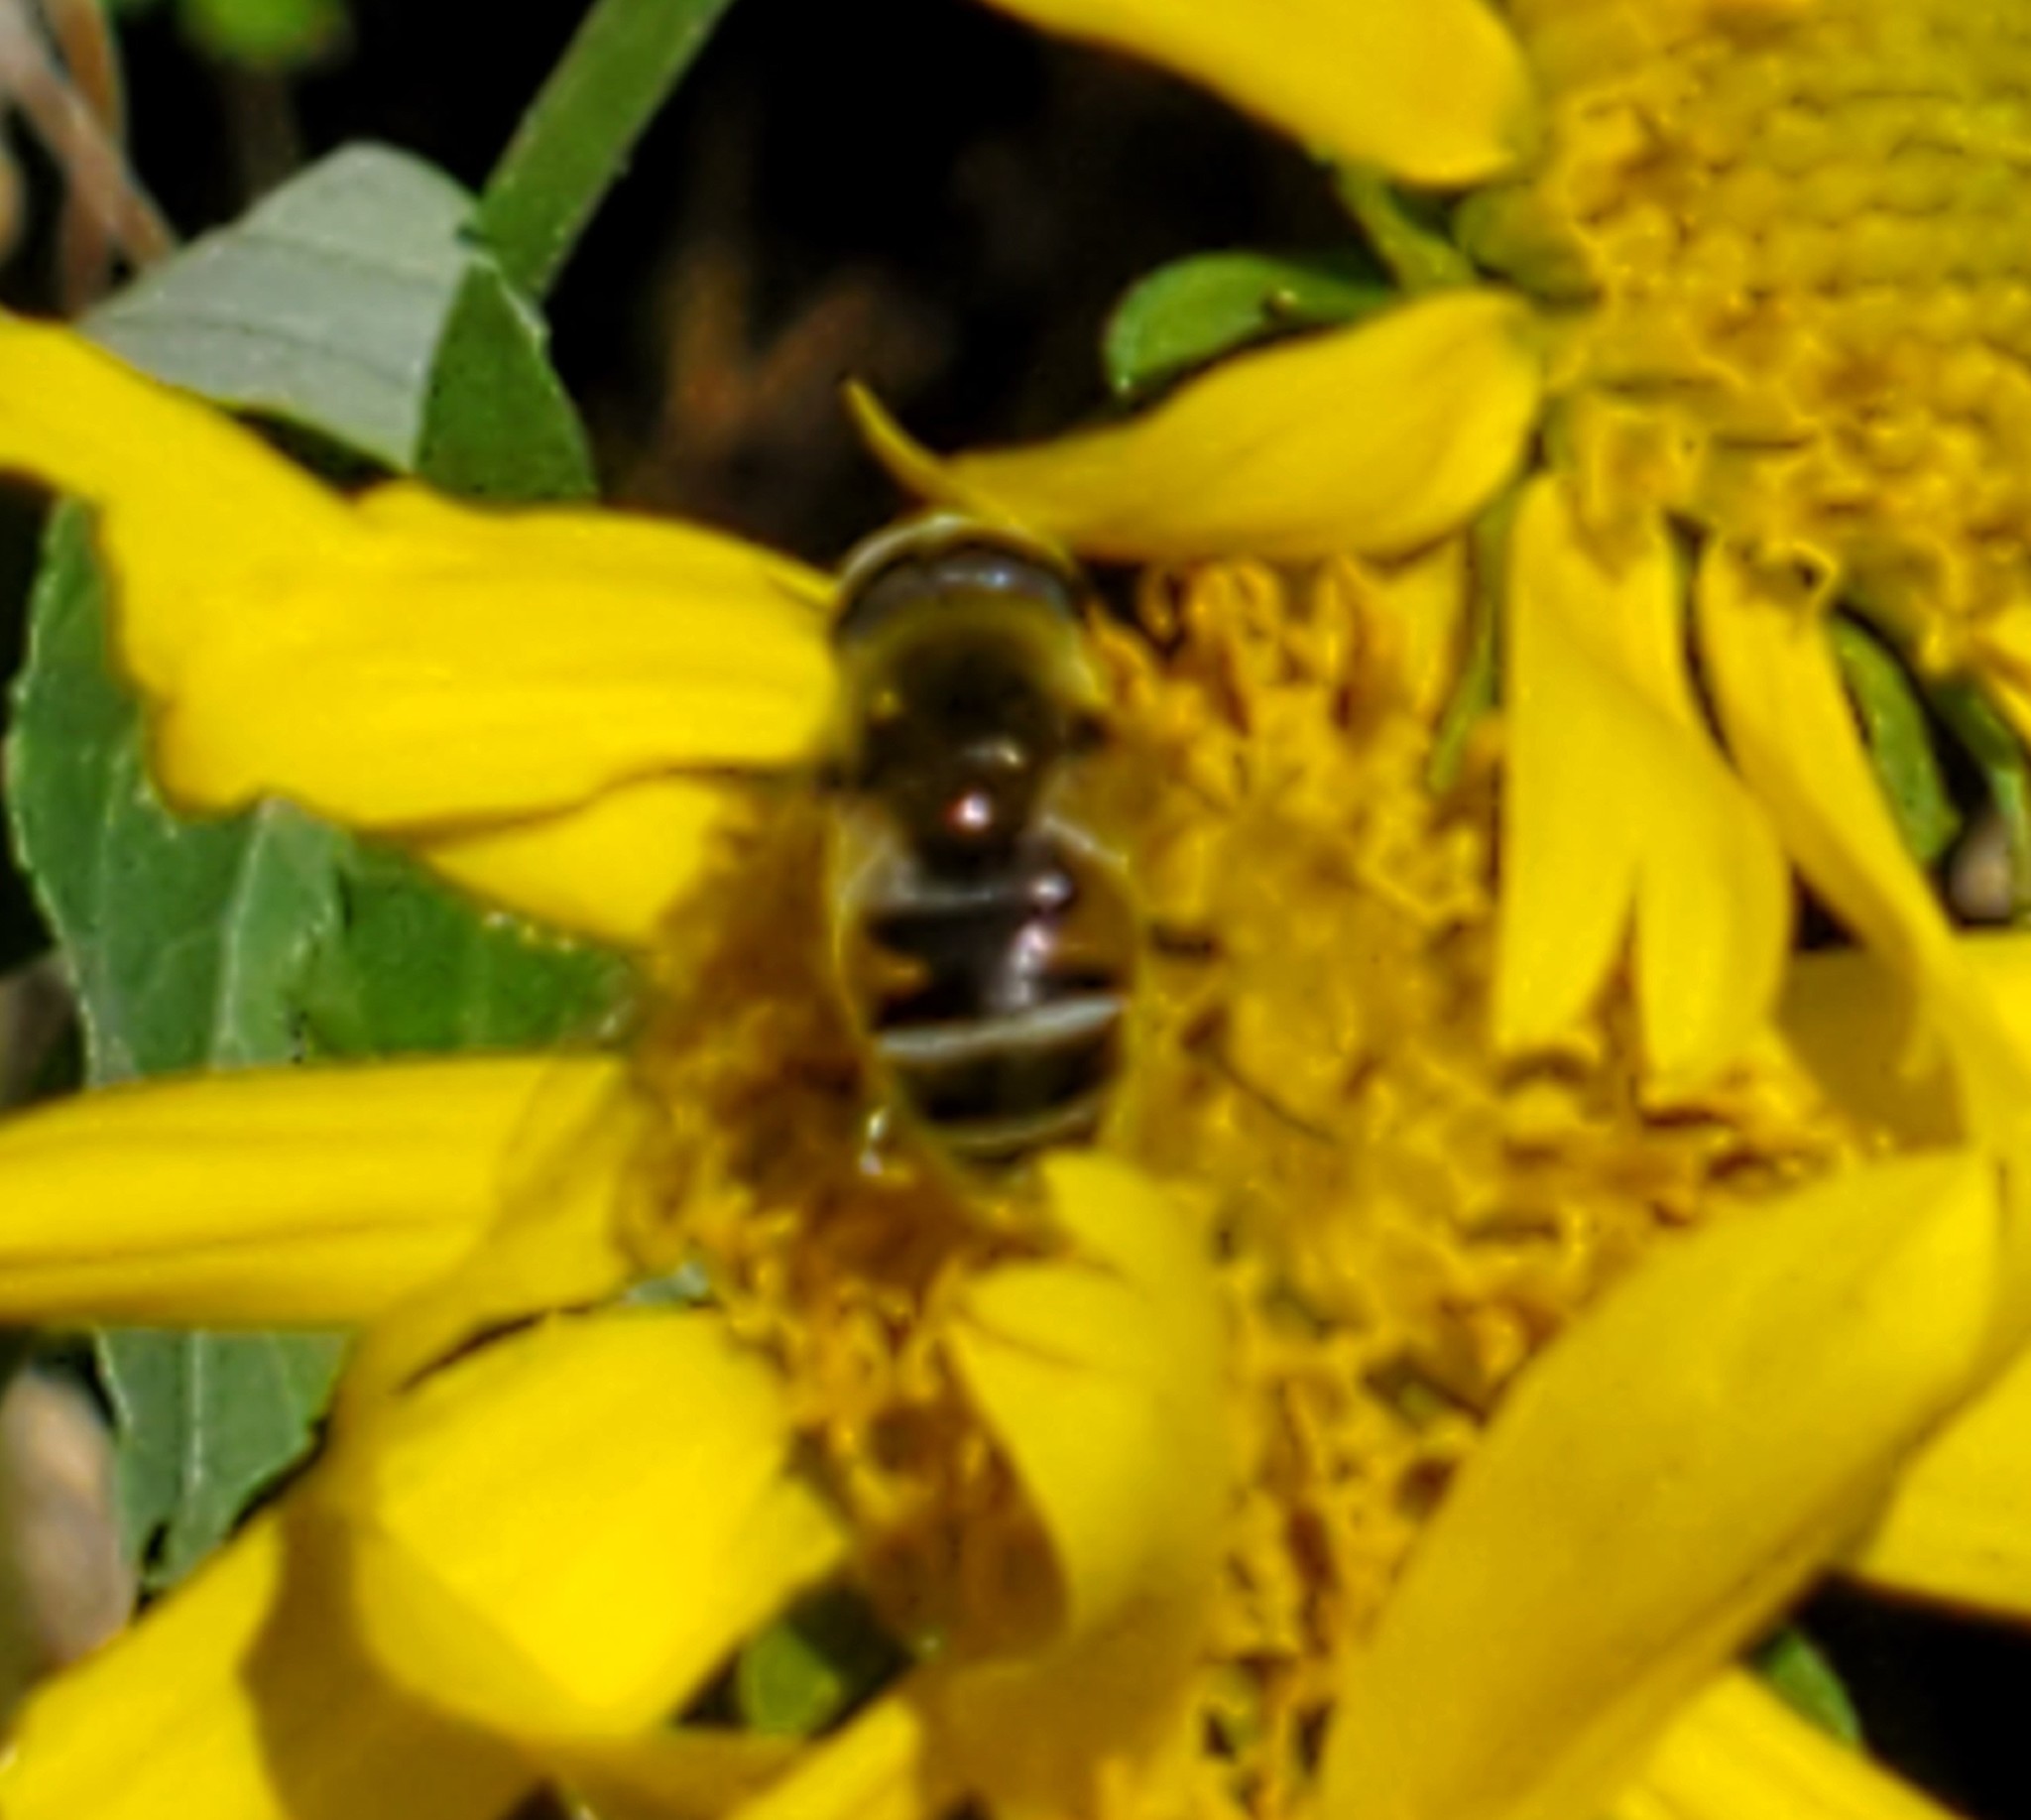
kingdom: Animalia
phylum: Arthropoda
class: Insecta
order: Diptera
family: Syrphidae
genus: Eristalis
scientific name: Eristalis stipator
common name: Yellow-shouldered drone fly
